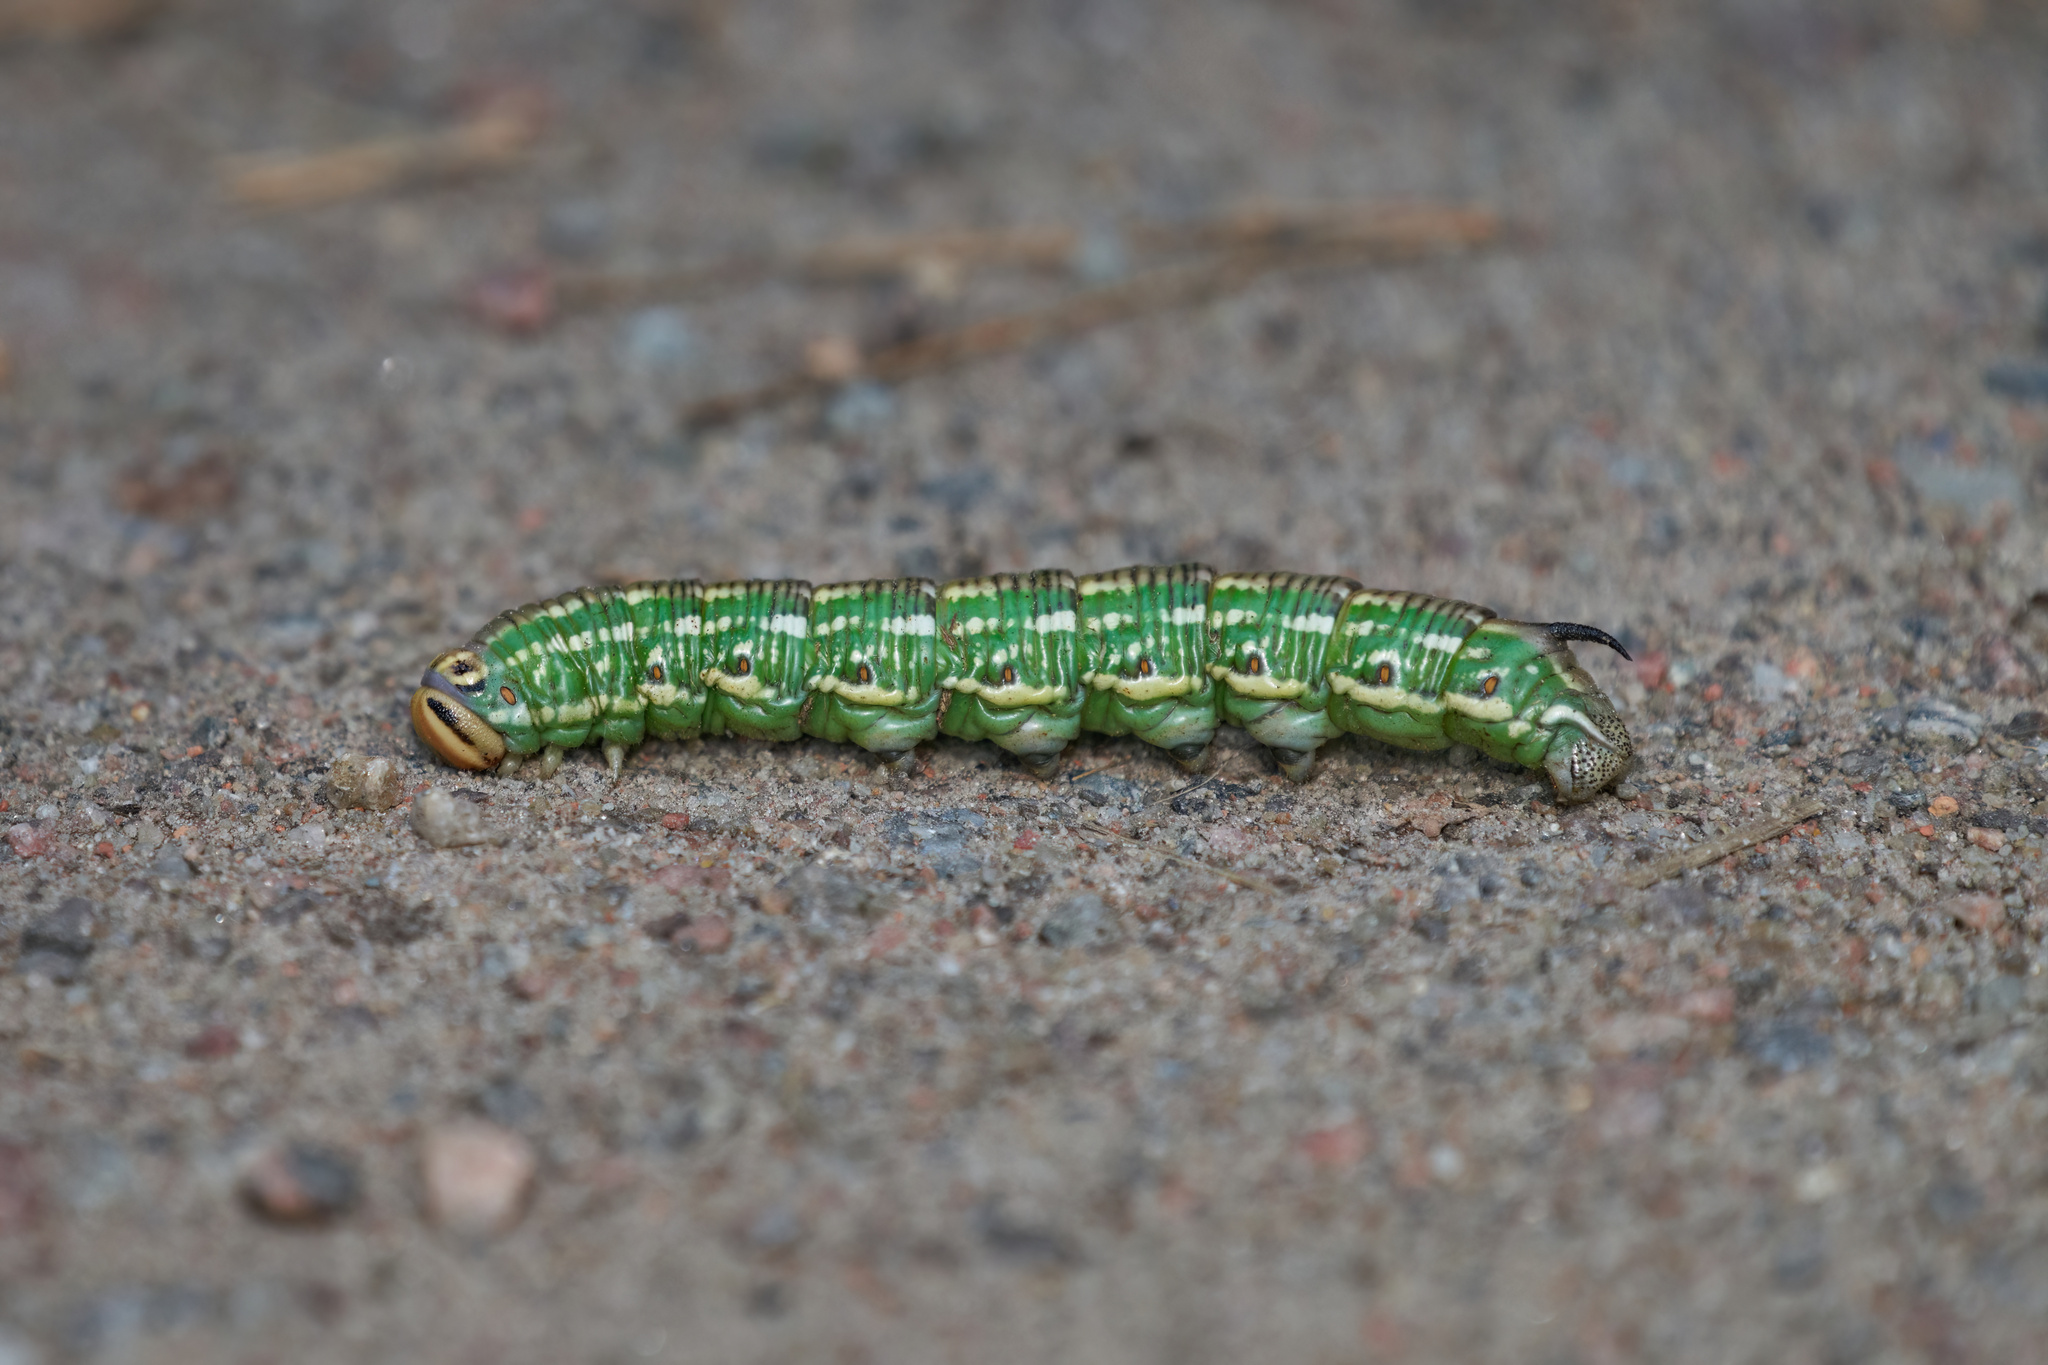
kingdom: Animalia
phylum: Arthropoda
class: Insecta
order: Lepidoptera
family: Sphingidae
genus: Sphinx
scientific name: Sphinx pinastri
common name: Pine hawk-moth
